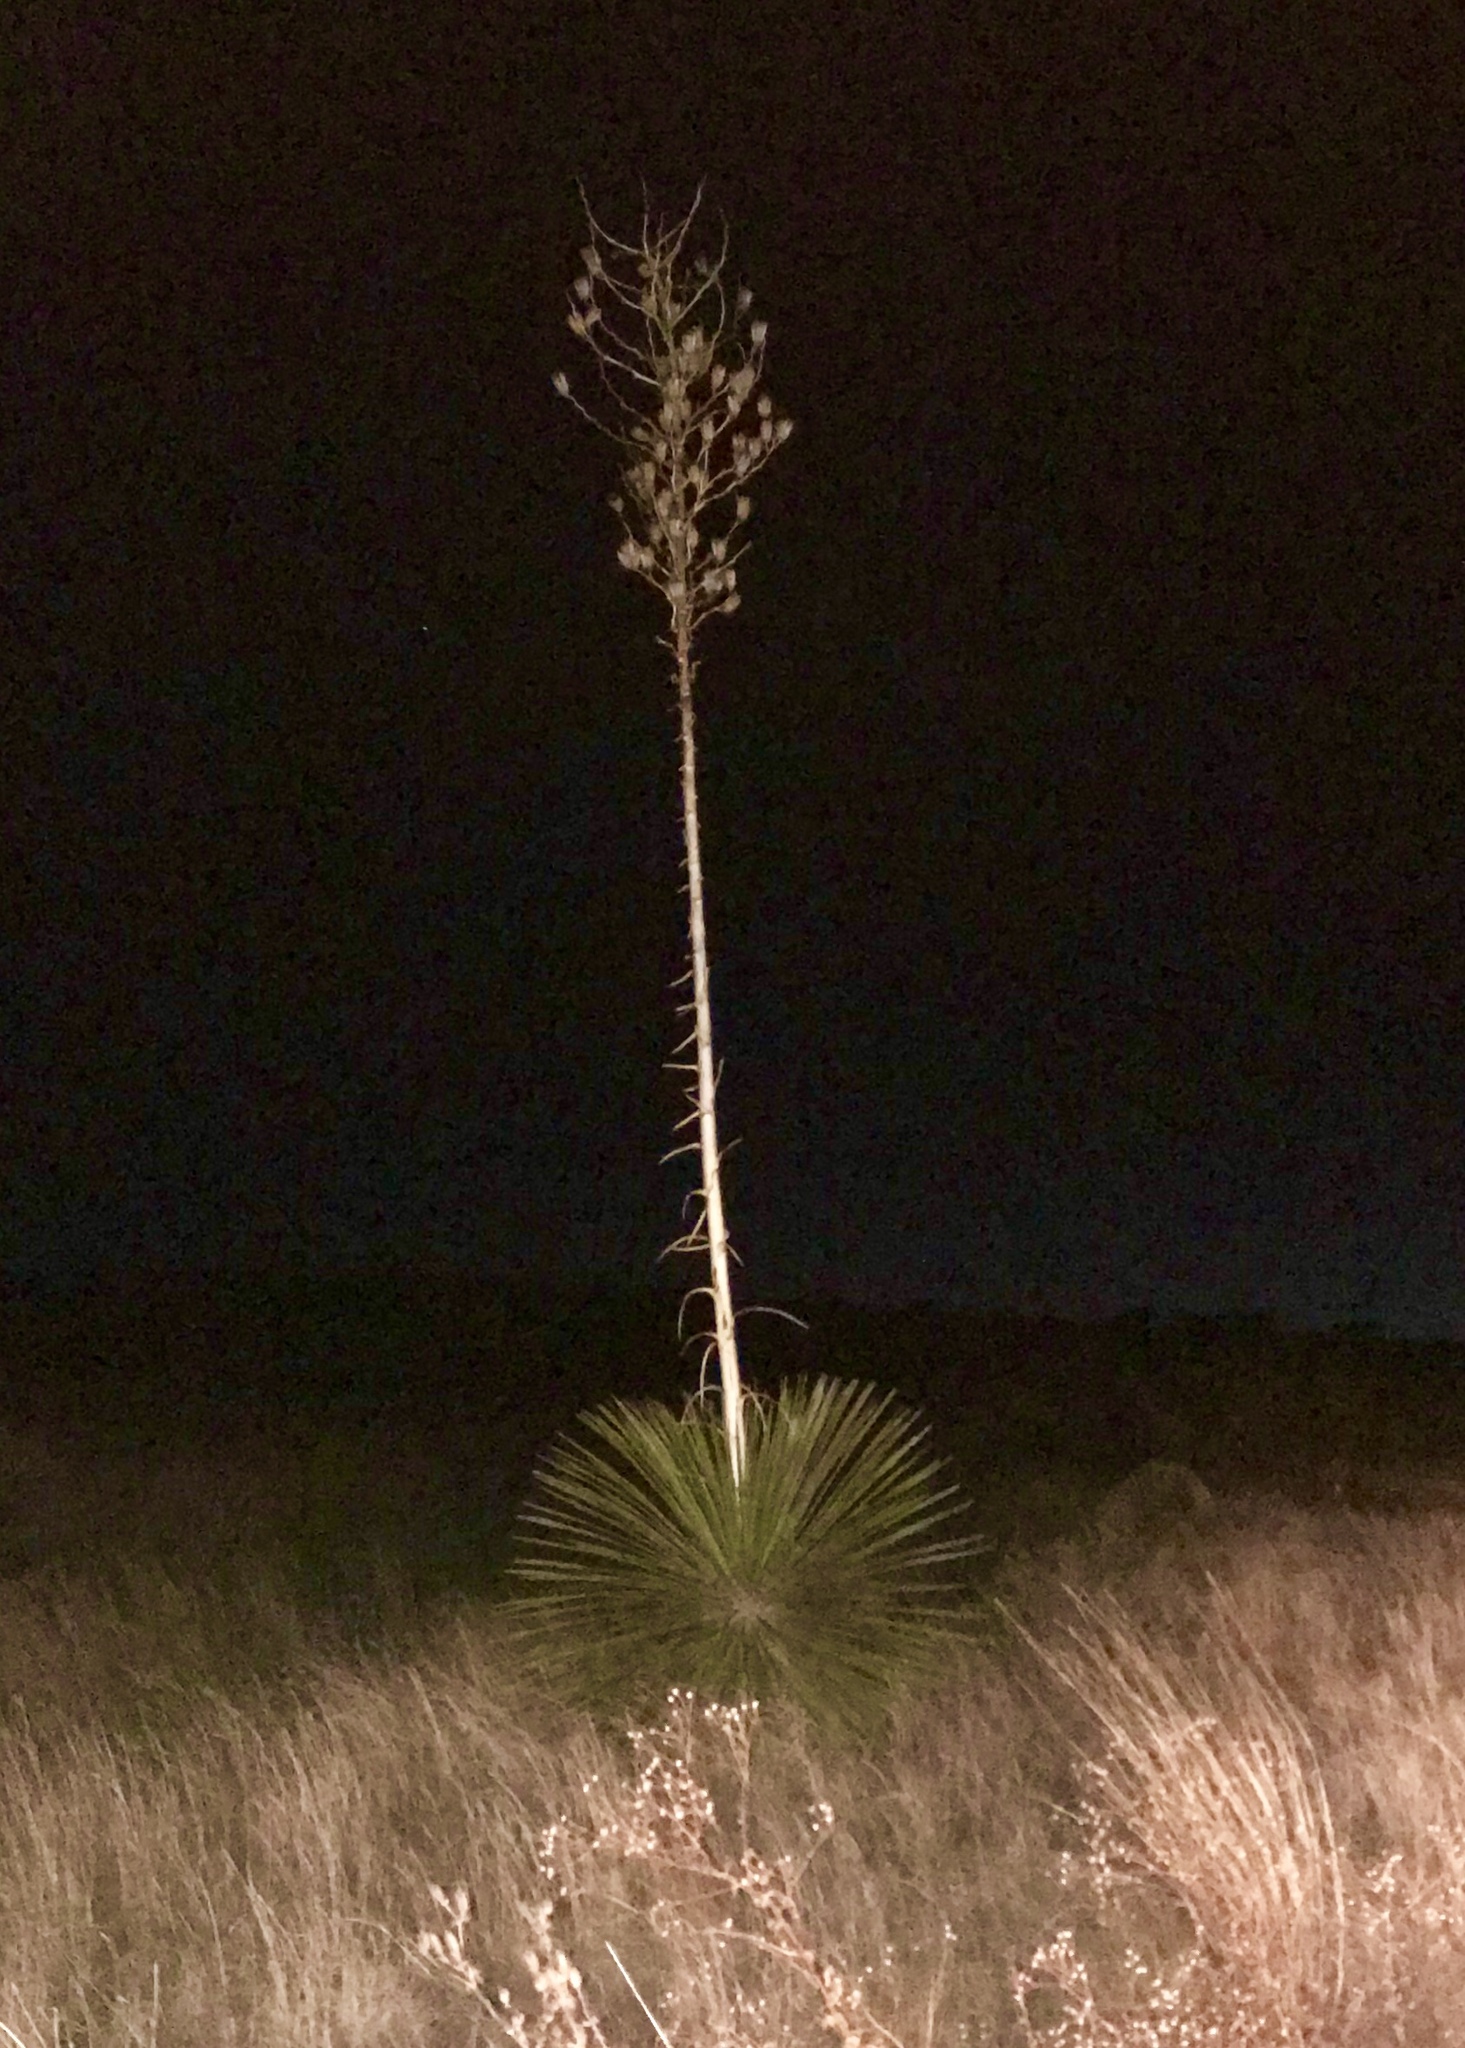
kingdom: Plantae
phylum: Tracheophyta
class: Liliopsida
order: Asparagales
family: Asparagaceae
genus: Yucca
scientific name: Yucca elata
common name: Palmella
